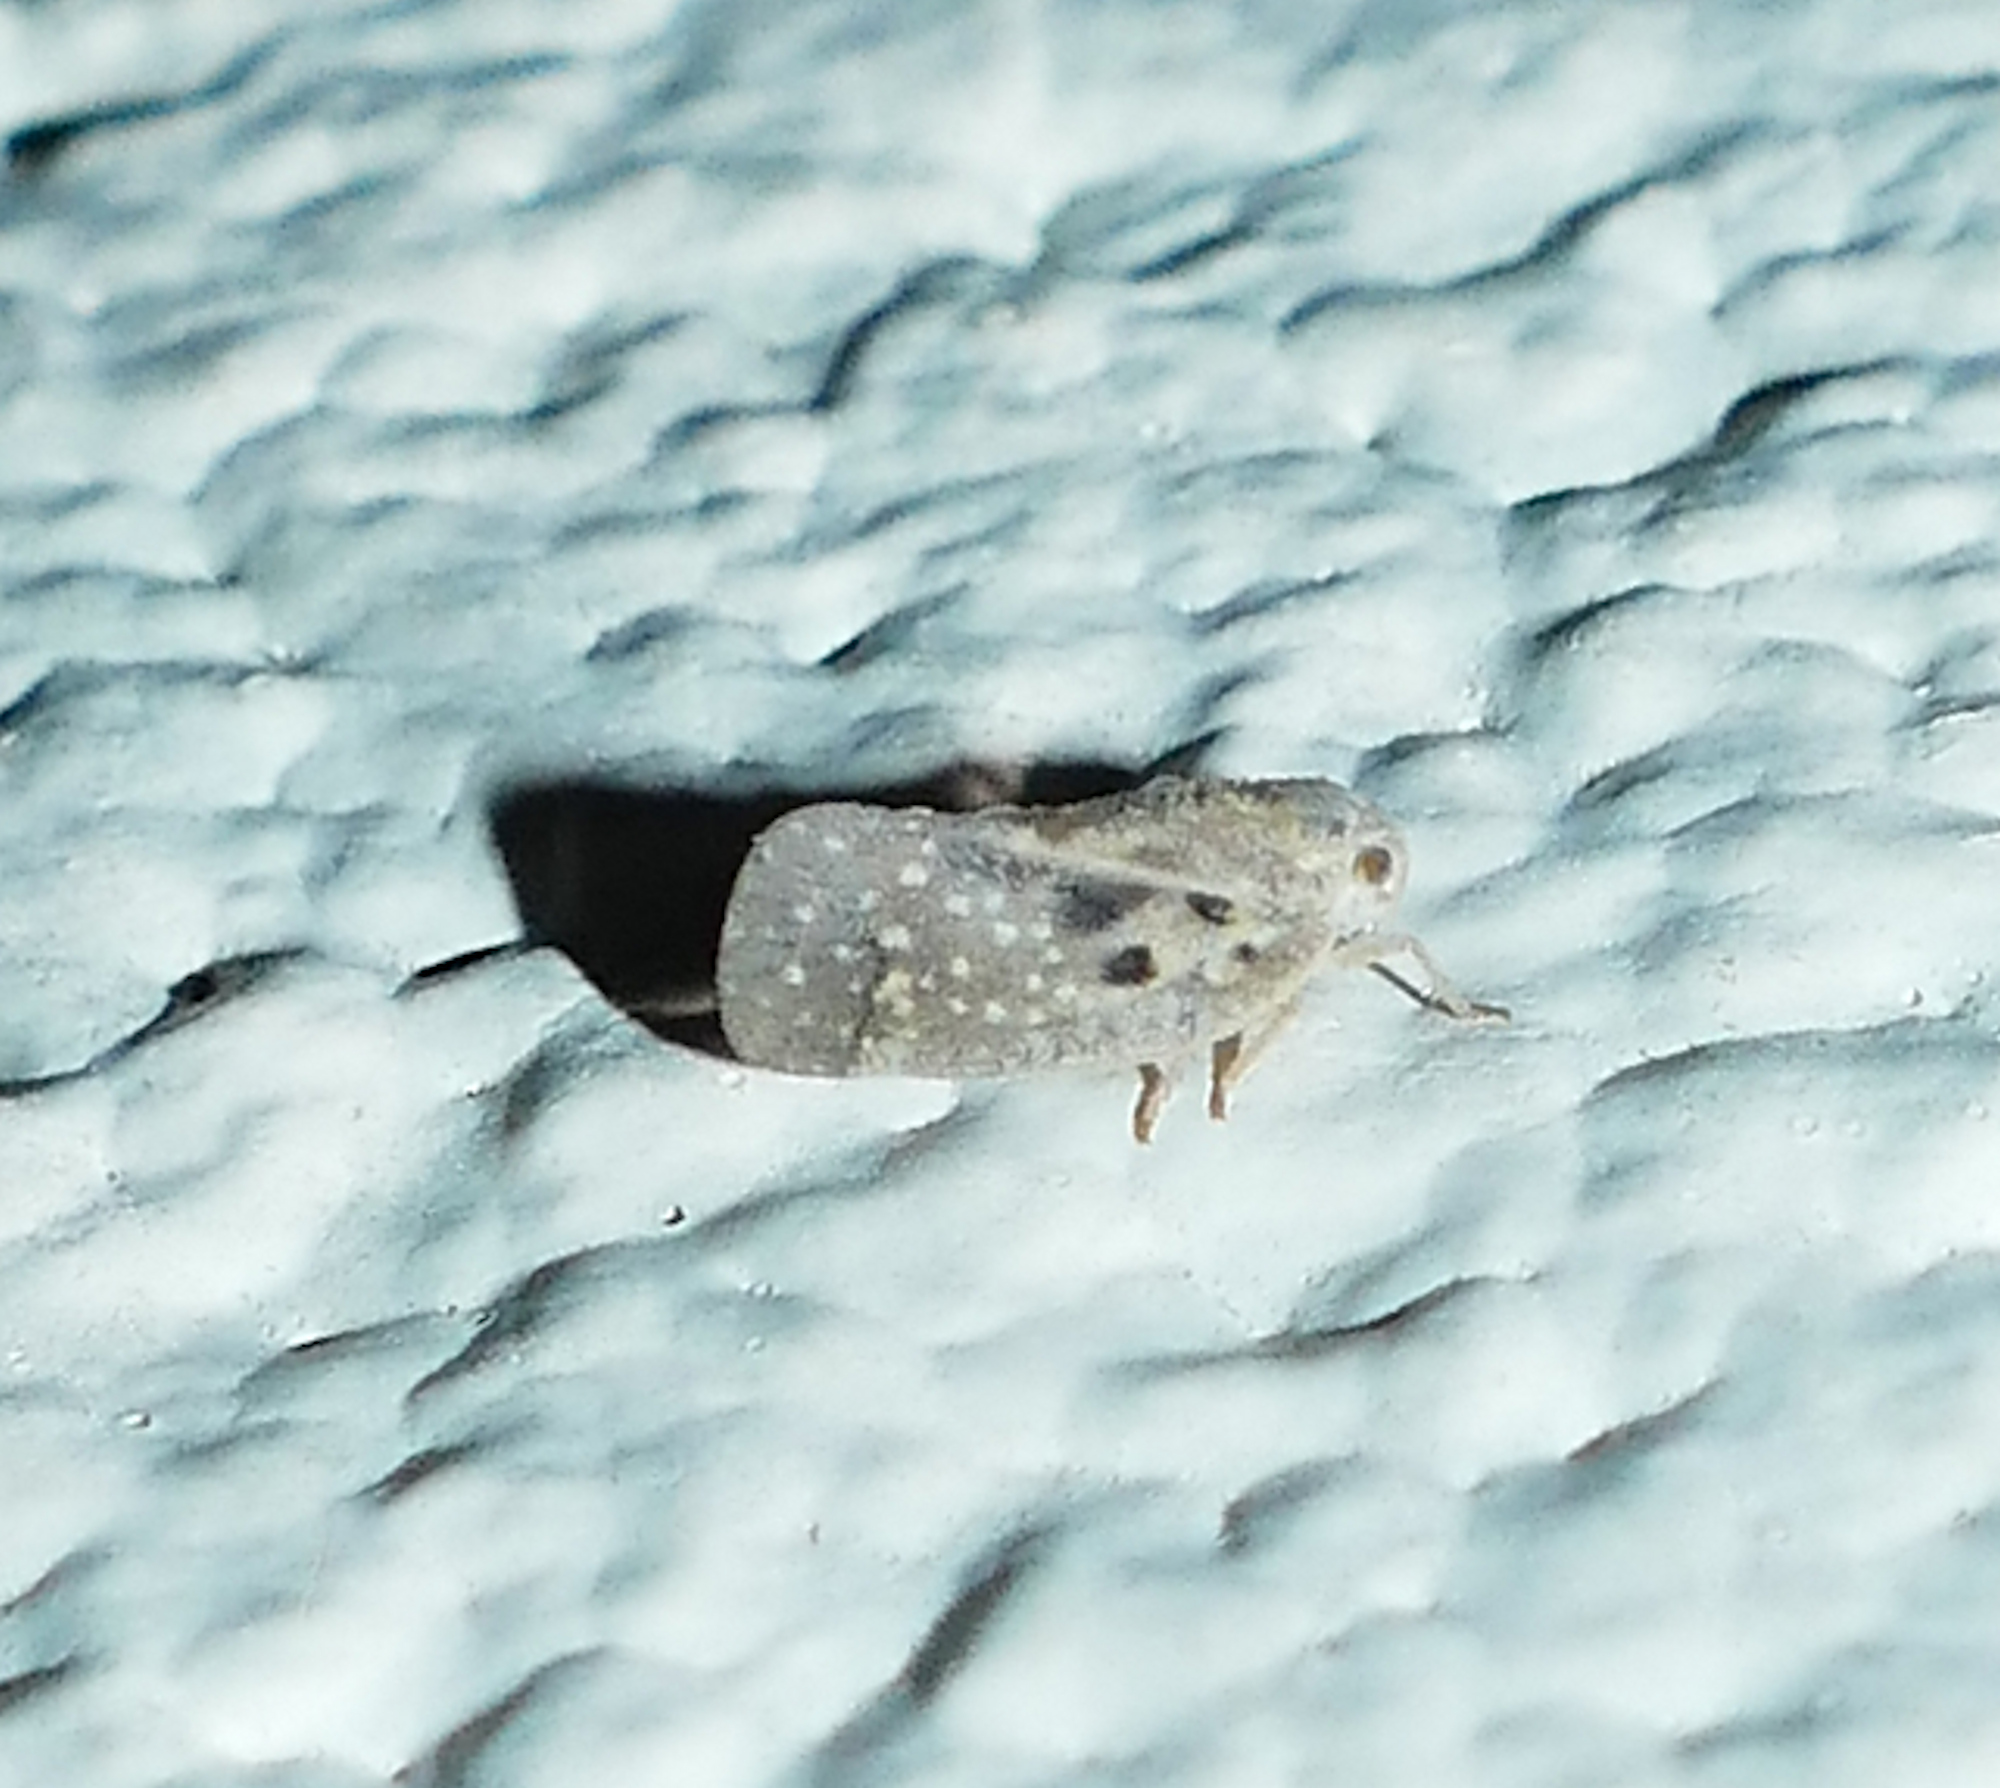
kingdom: Animalia
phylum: Arthropoda
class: Insecta
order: Hemiptera
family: Flatidae
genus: Metcalfa
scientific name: Metcalfa pruinosa
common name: Citrus flatid planthopper
